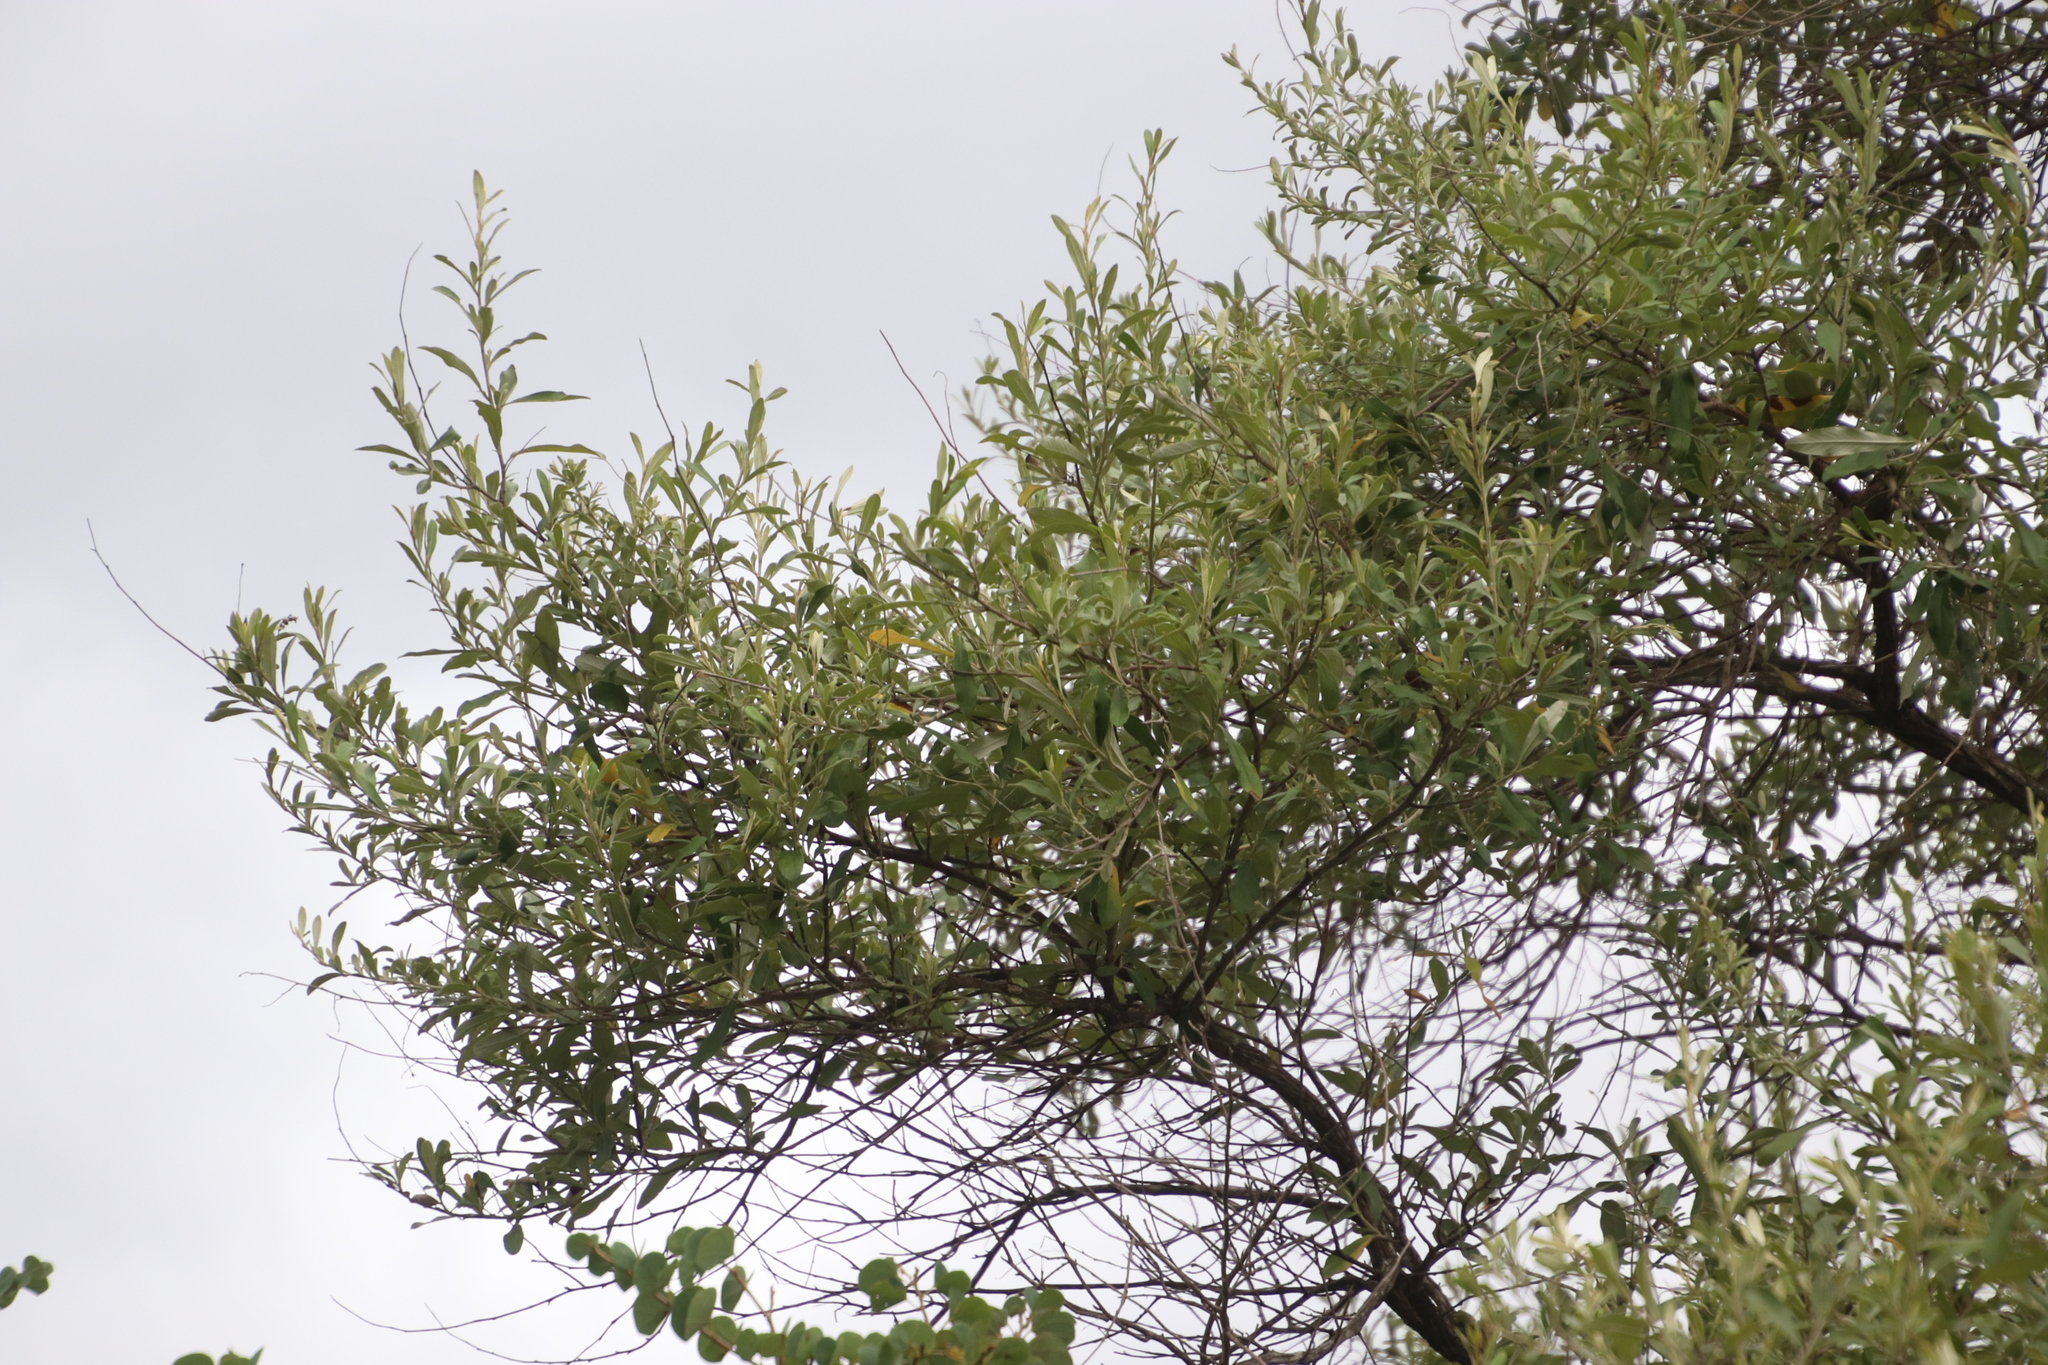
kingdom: Plantae
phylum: Tracheophyta
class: Magnoliopsida
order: Asterales
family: Asteraceae
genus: Tarchonanthus
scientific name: Tarchonanthus parvicapitulatus
